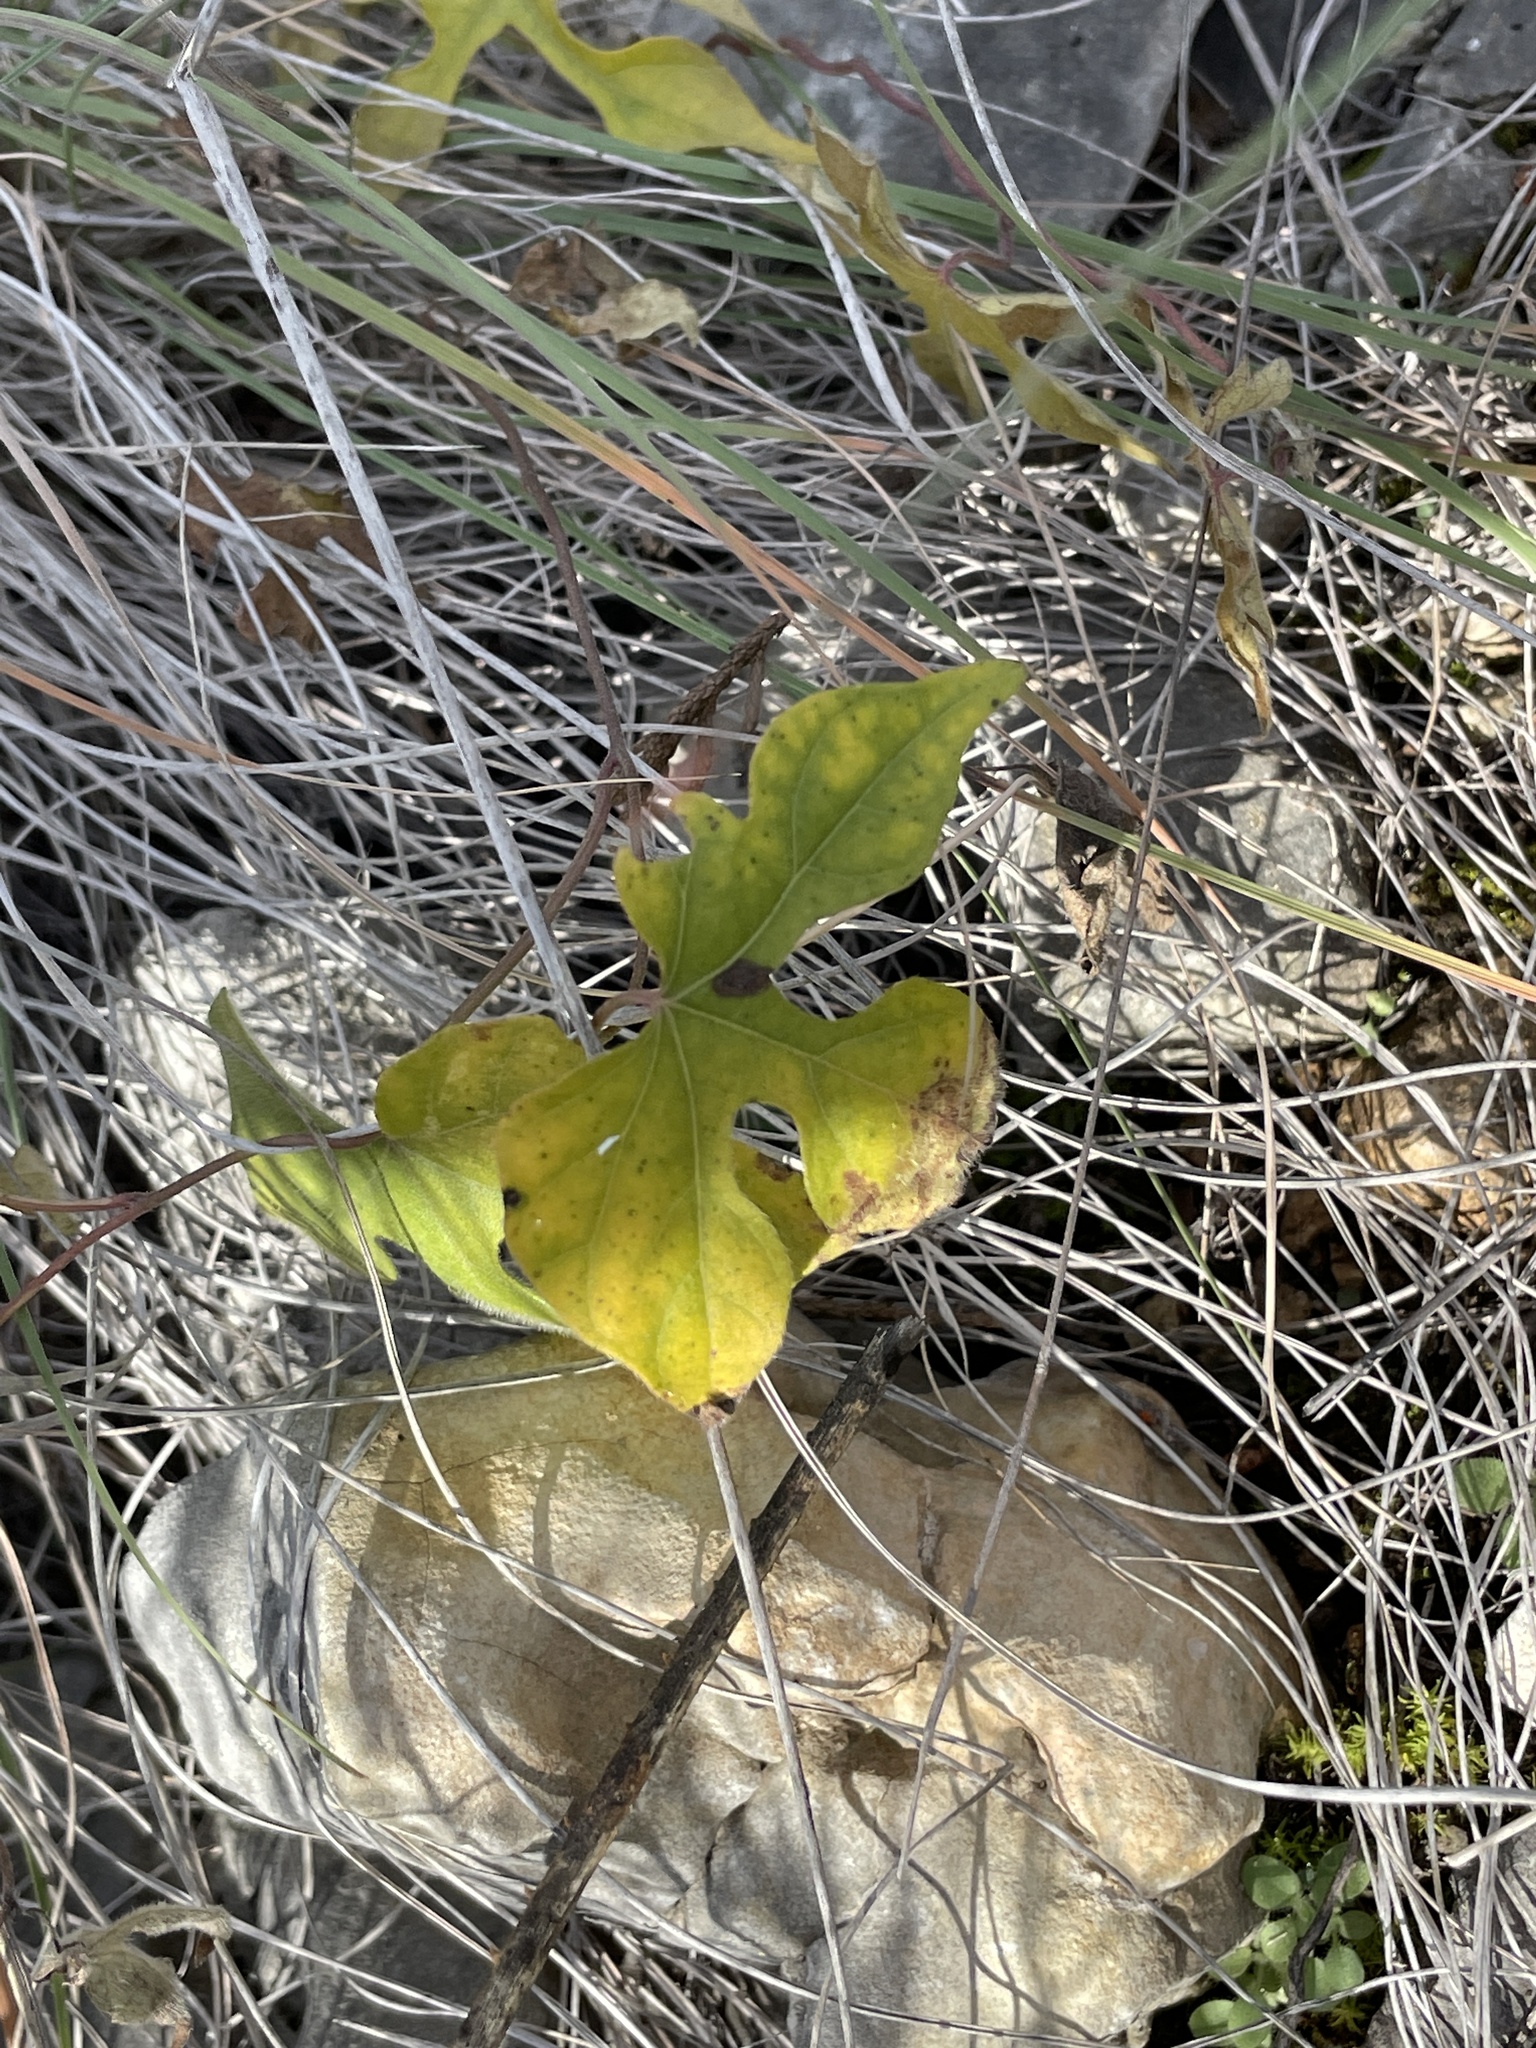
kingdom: Plantae
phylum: Tracheophyta
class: Magnoliopsida
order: Solanales
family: Convolvulaceae
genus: Ipomoea
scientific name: Ipomoea lindheimeri
